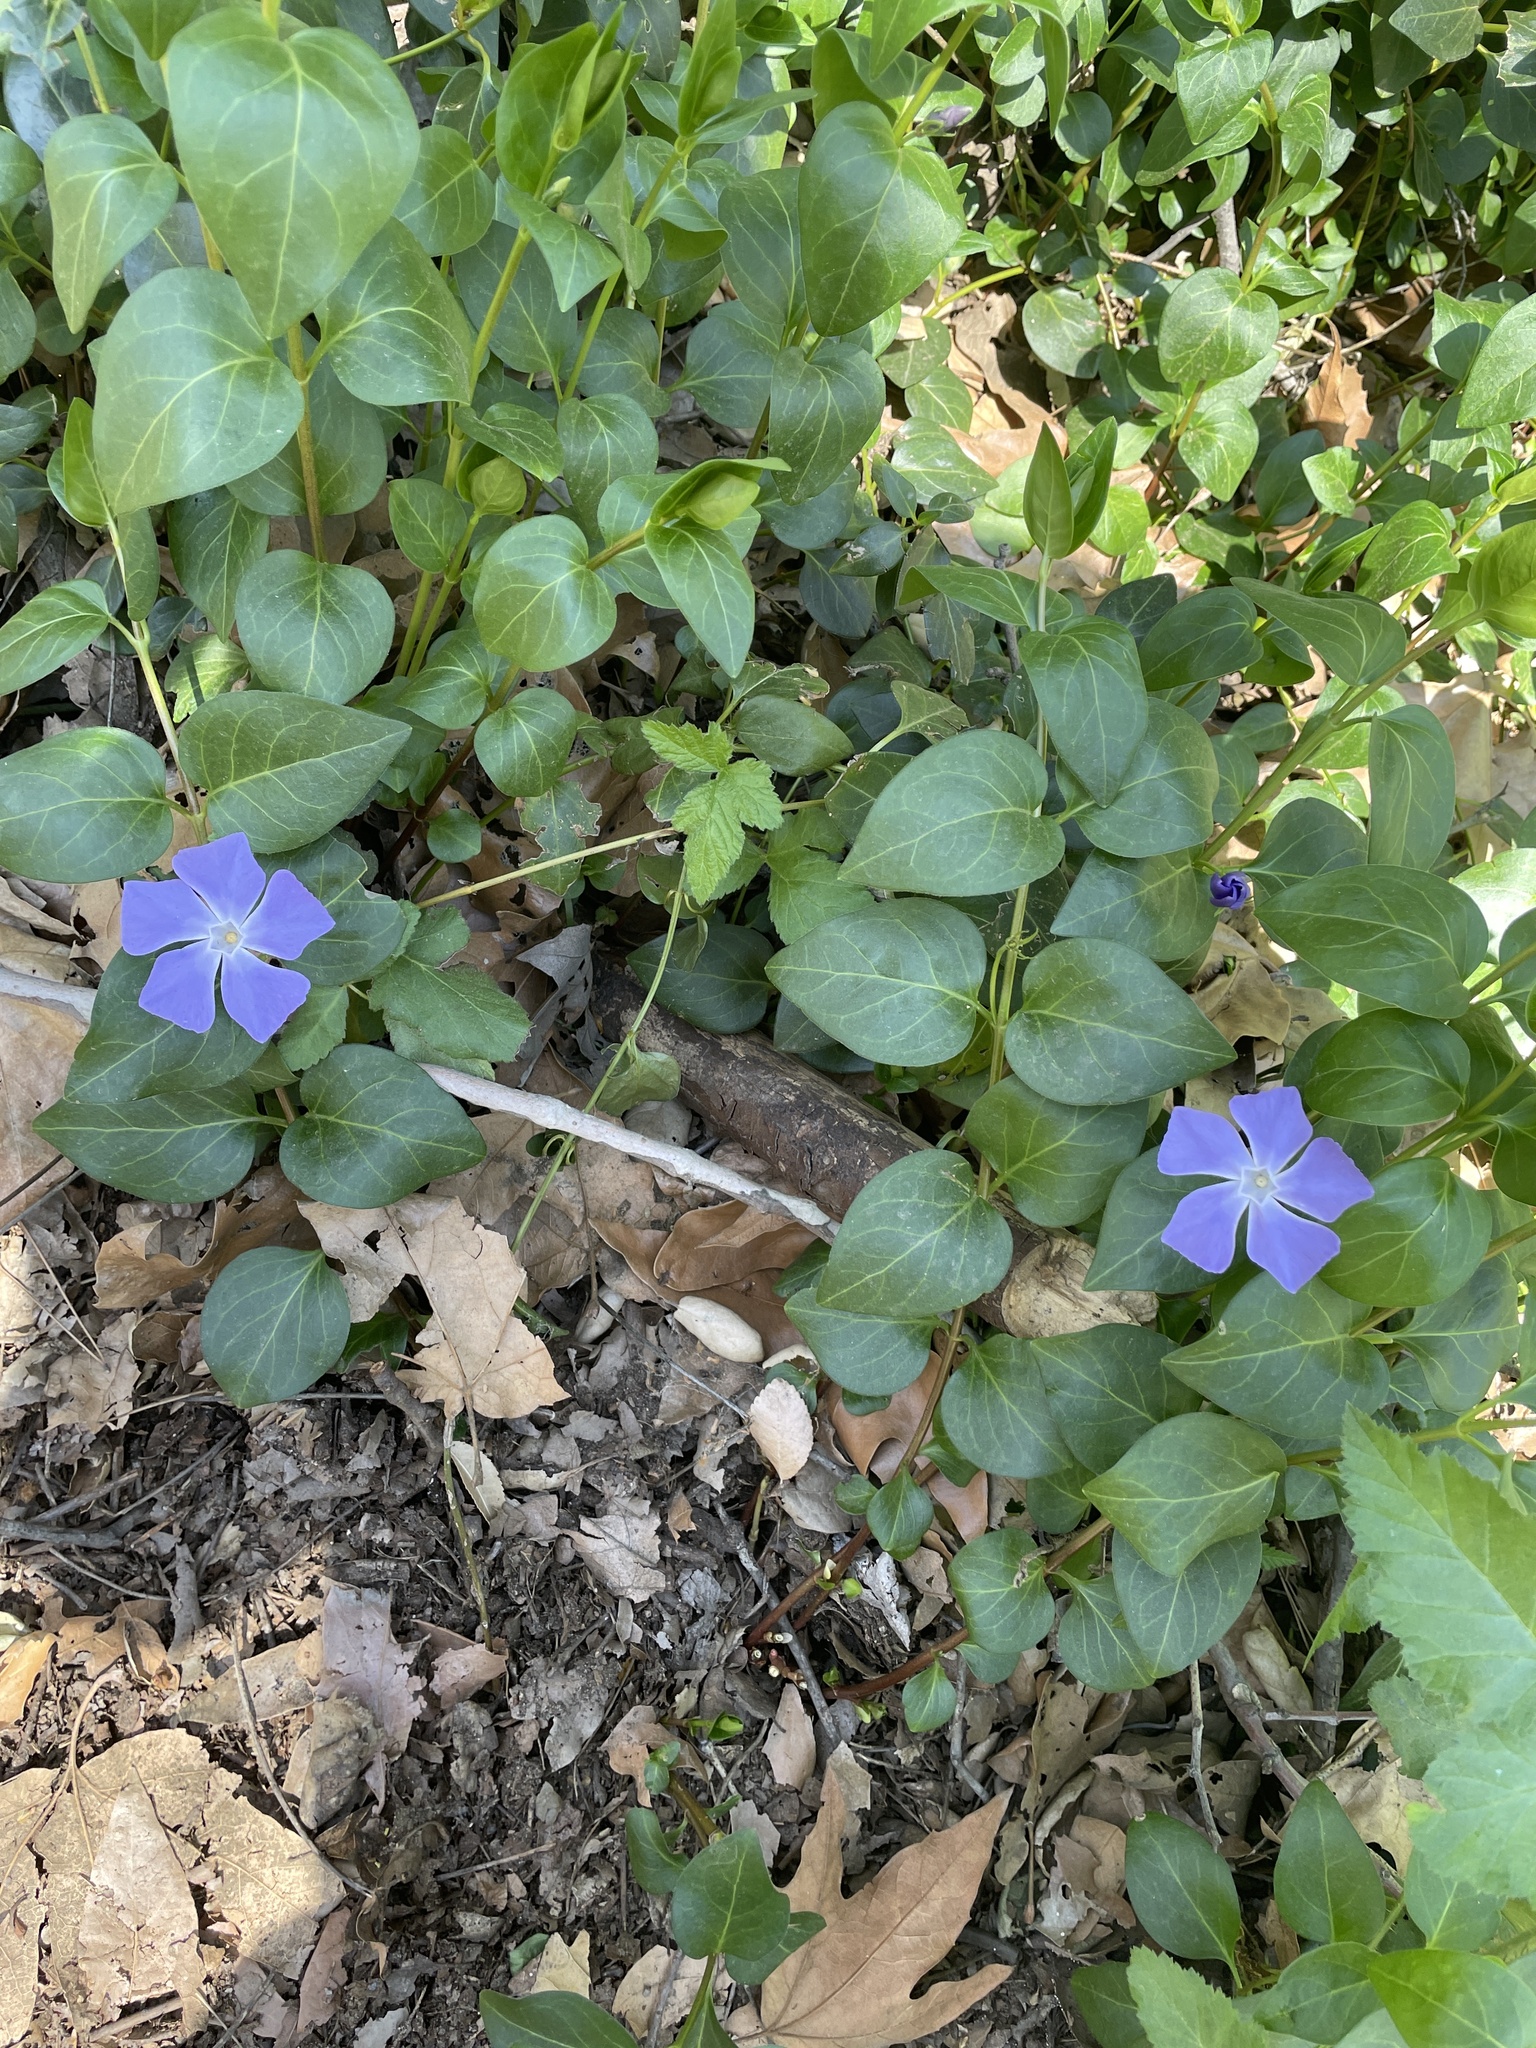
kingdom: Plantae
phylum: Tracheophyta
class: Magnoliopsida
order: Gentianales
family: Apocynaceae
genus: Vinca
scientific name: Vinca major
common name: Greater periwinkle
